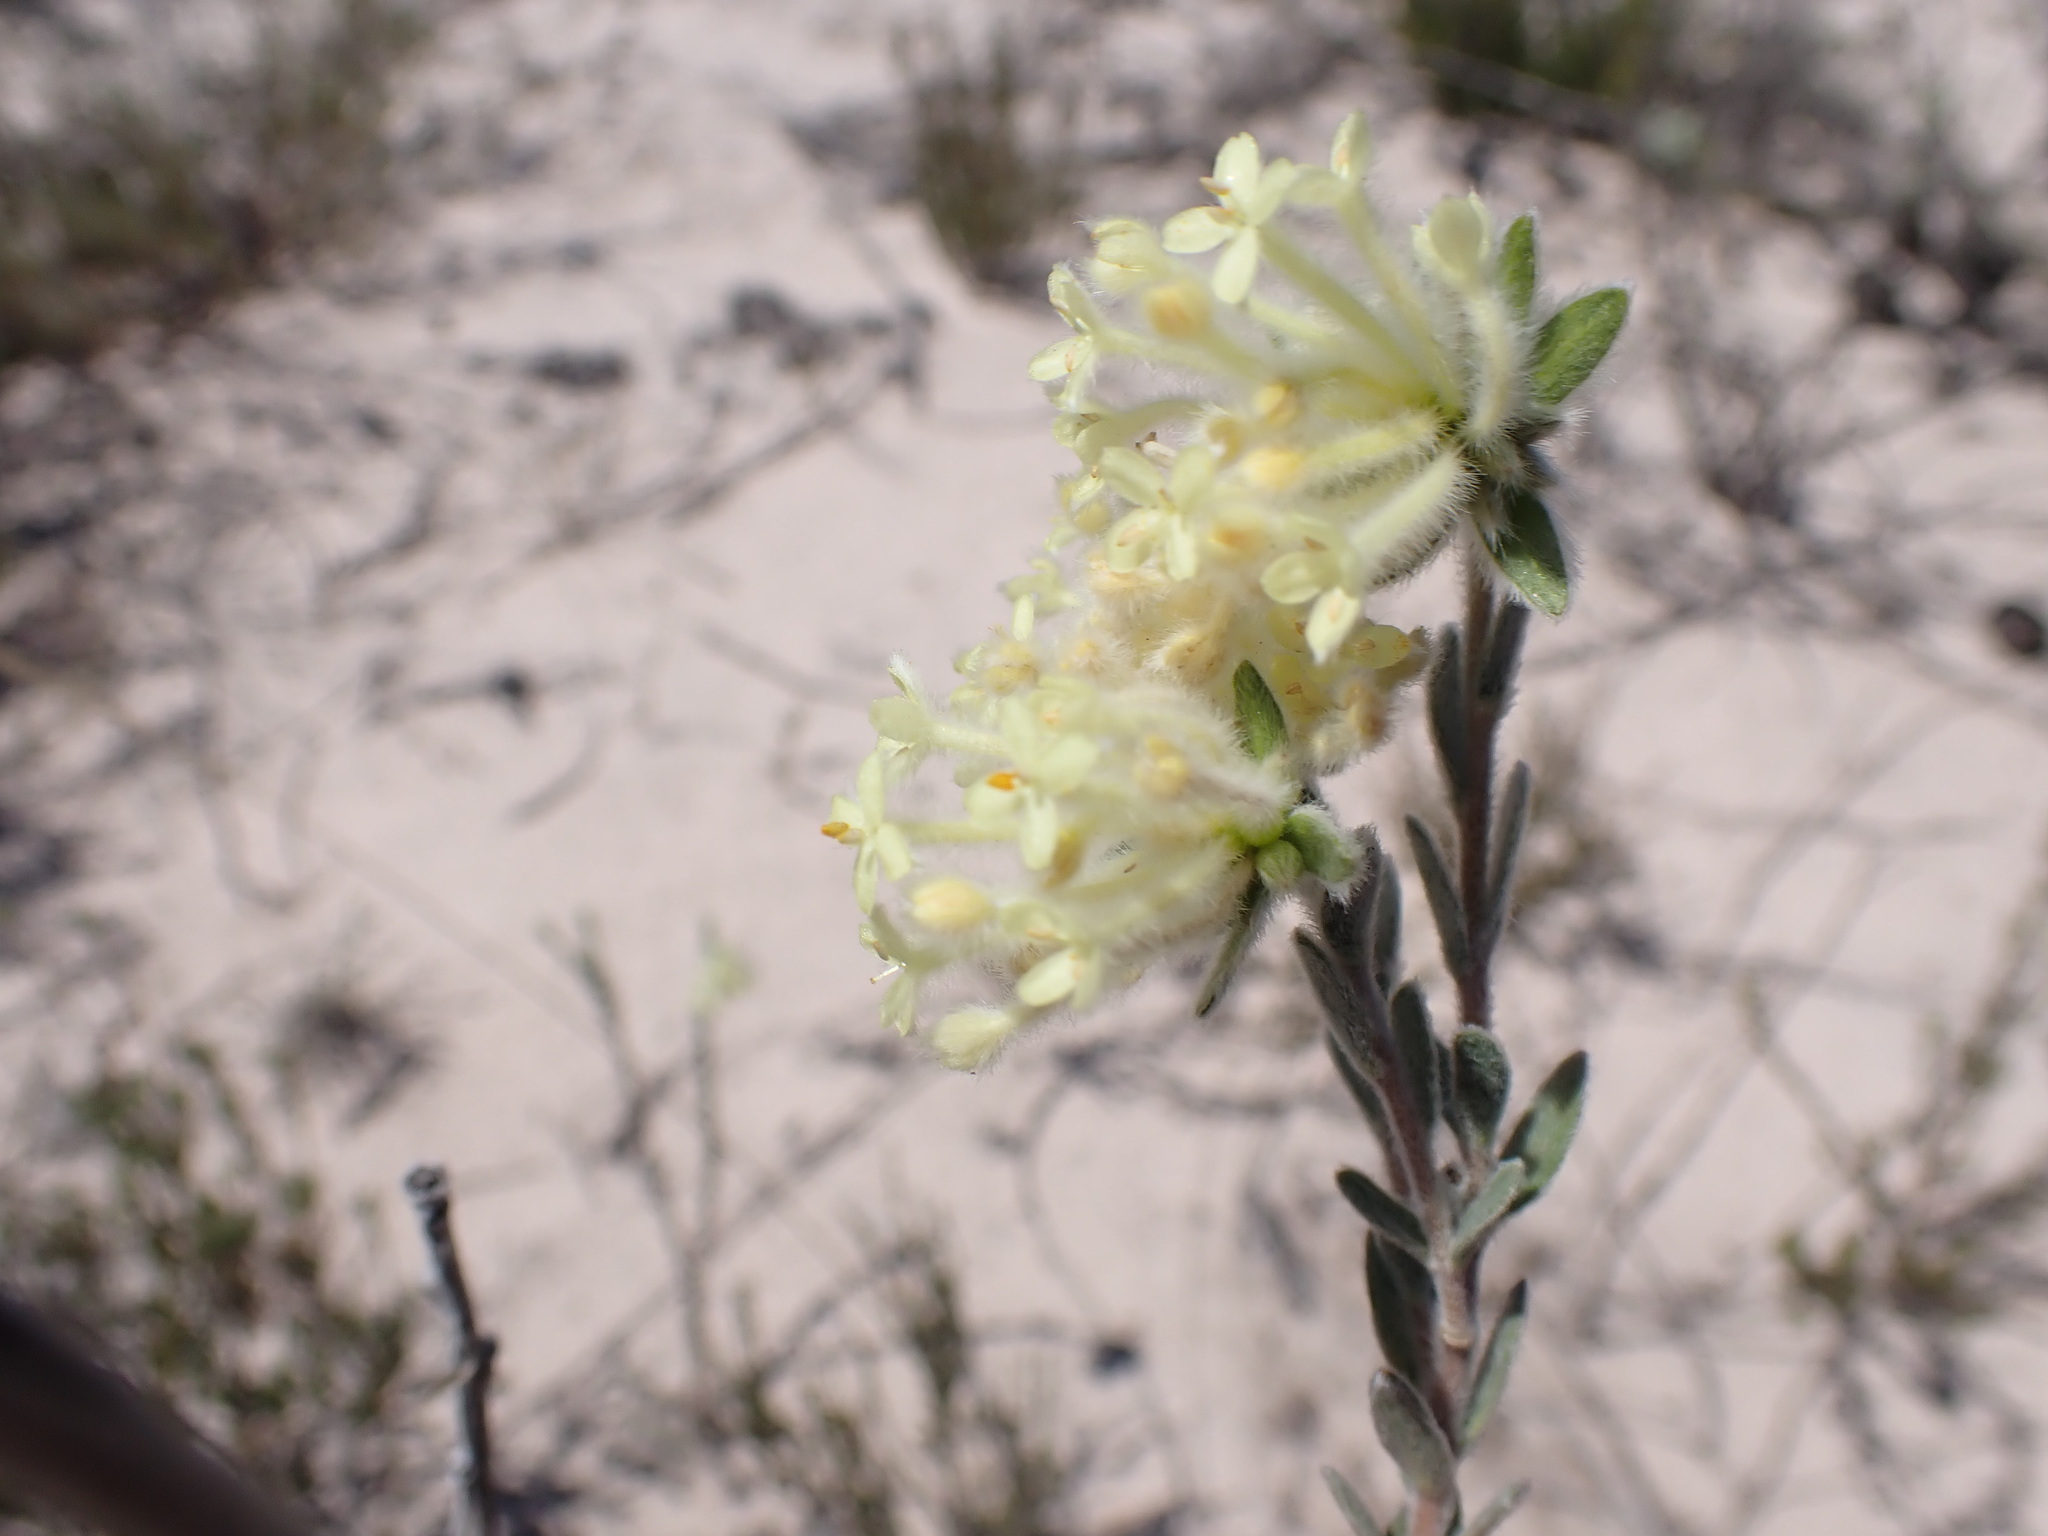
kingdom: Plantae
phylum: Tracheophyta
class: Magnoliopsida
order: Malvales
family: Thymelaeaceae
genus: Pimelea
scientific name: Pimelea octophylla
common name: Woolly riceflower
